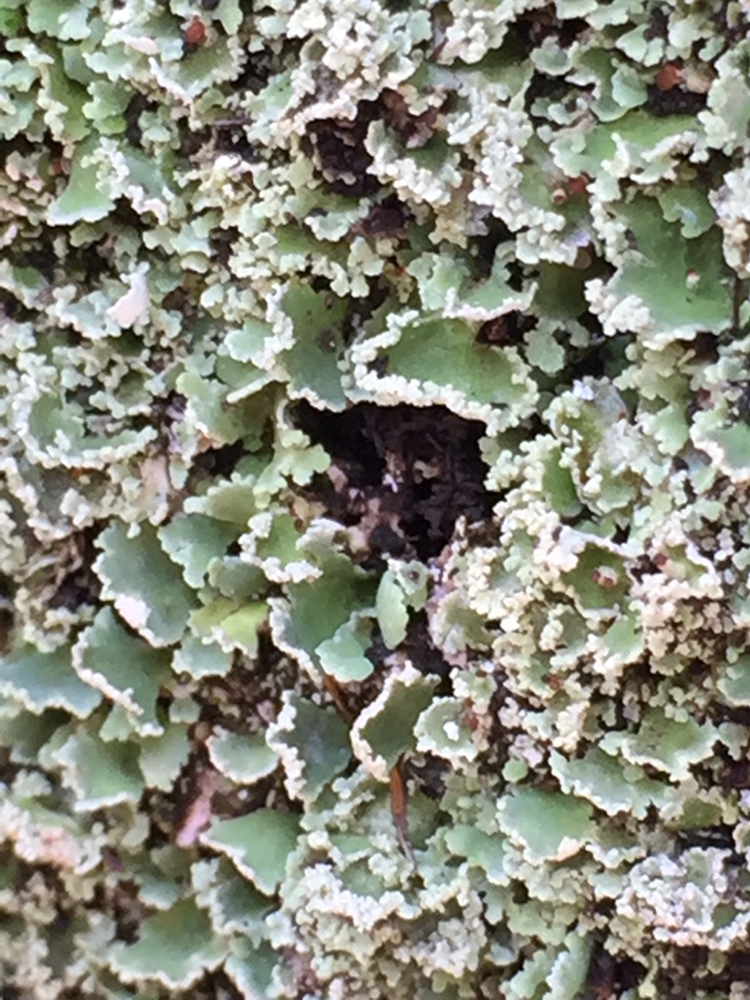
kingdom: Fungi
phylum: Ascomycota
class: Lecanoromycetes
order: Lecanorales
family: Cladoniaceae
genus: Cladonia
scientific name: Cladonia enantia
